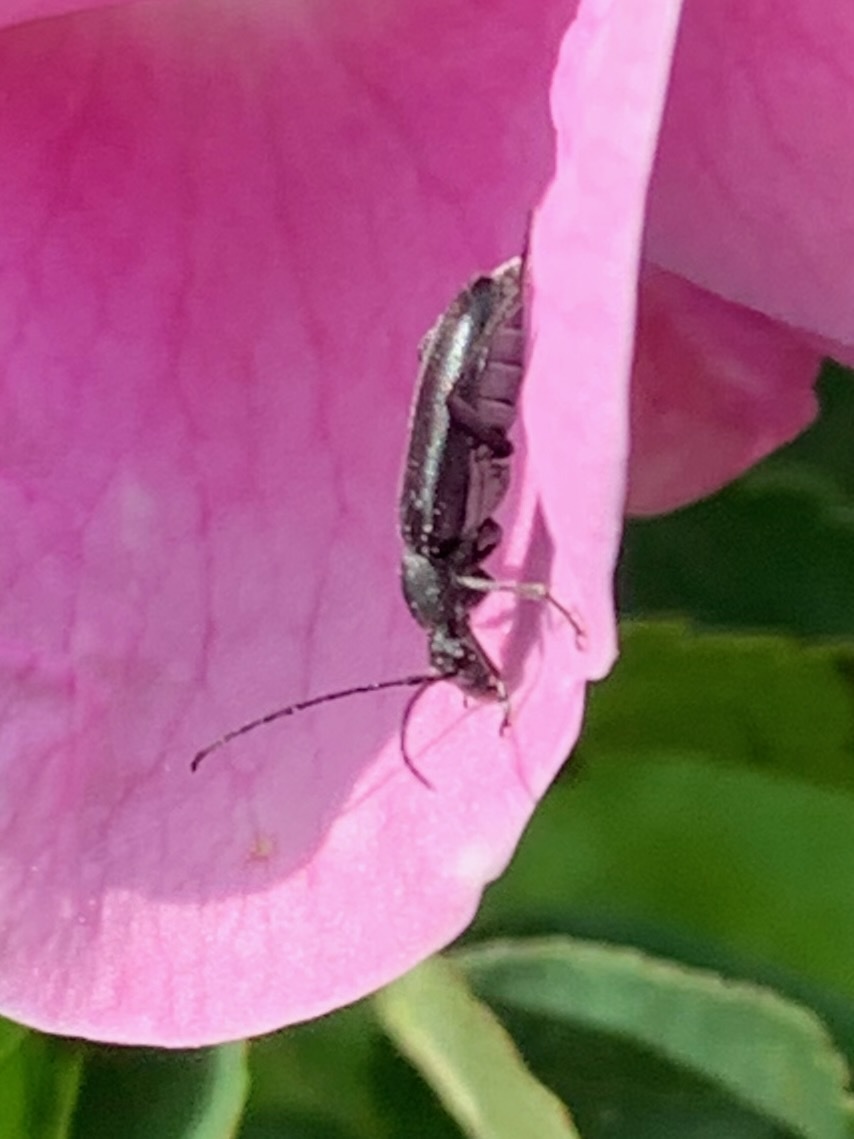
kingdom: Animalia
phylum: Arthropoda
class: Insecta
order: Coleoptera
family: Cerambycidae
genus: Grammoptera
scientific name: Grammoptera subargentata
